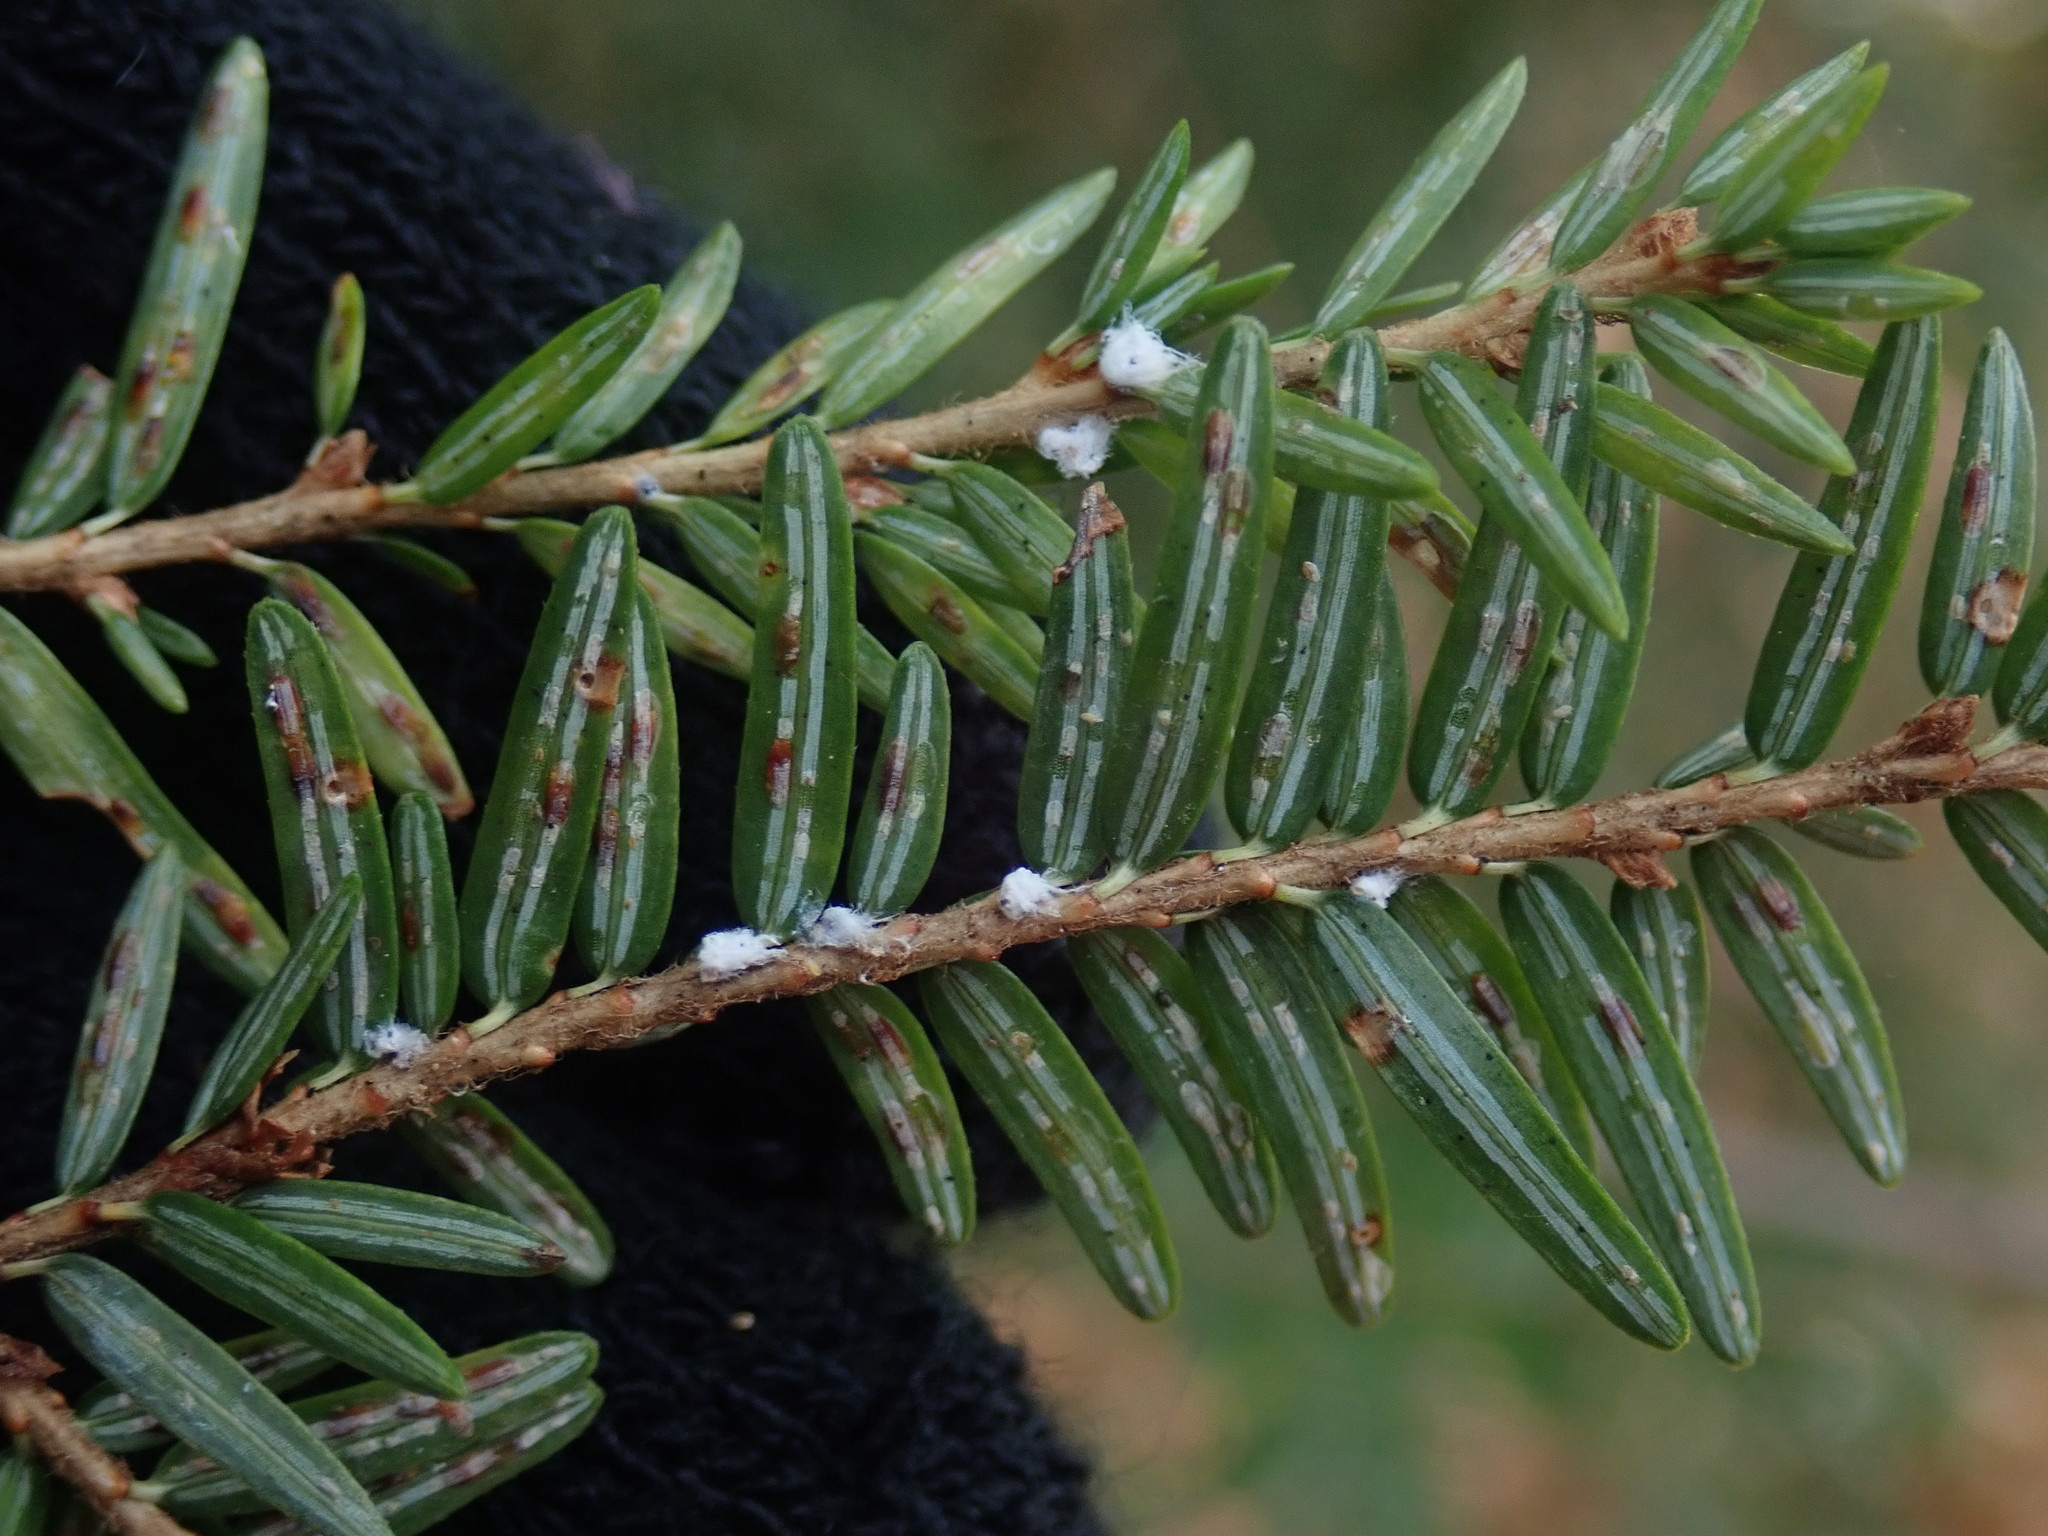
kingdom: Plantae
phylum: Tracheophyta
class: Pinopsida
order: Pinales
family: Pinaceae
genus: Tsuga
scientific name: Tsuga canadensis
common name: Eastern hemlock
